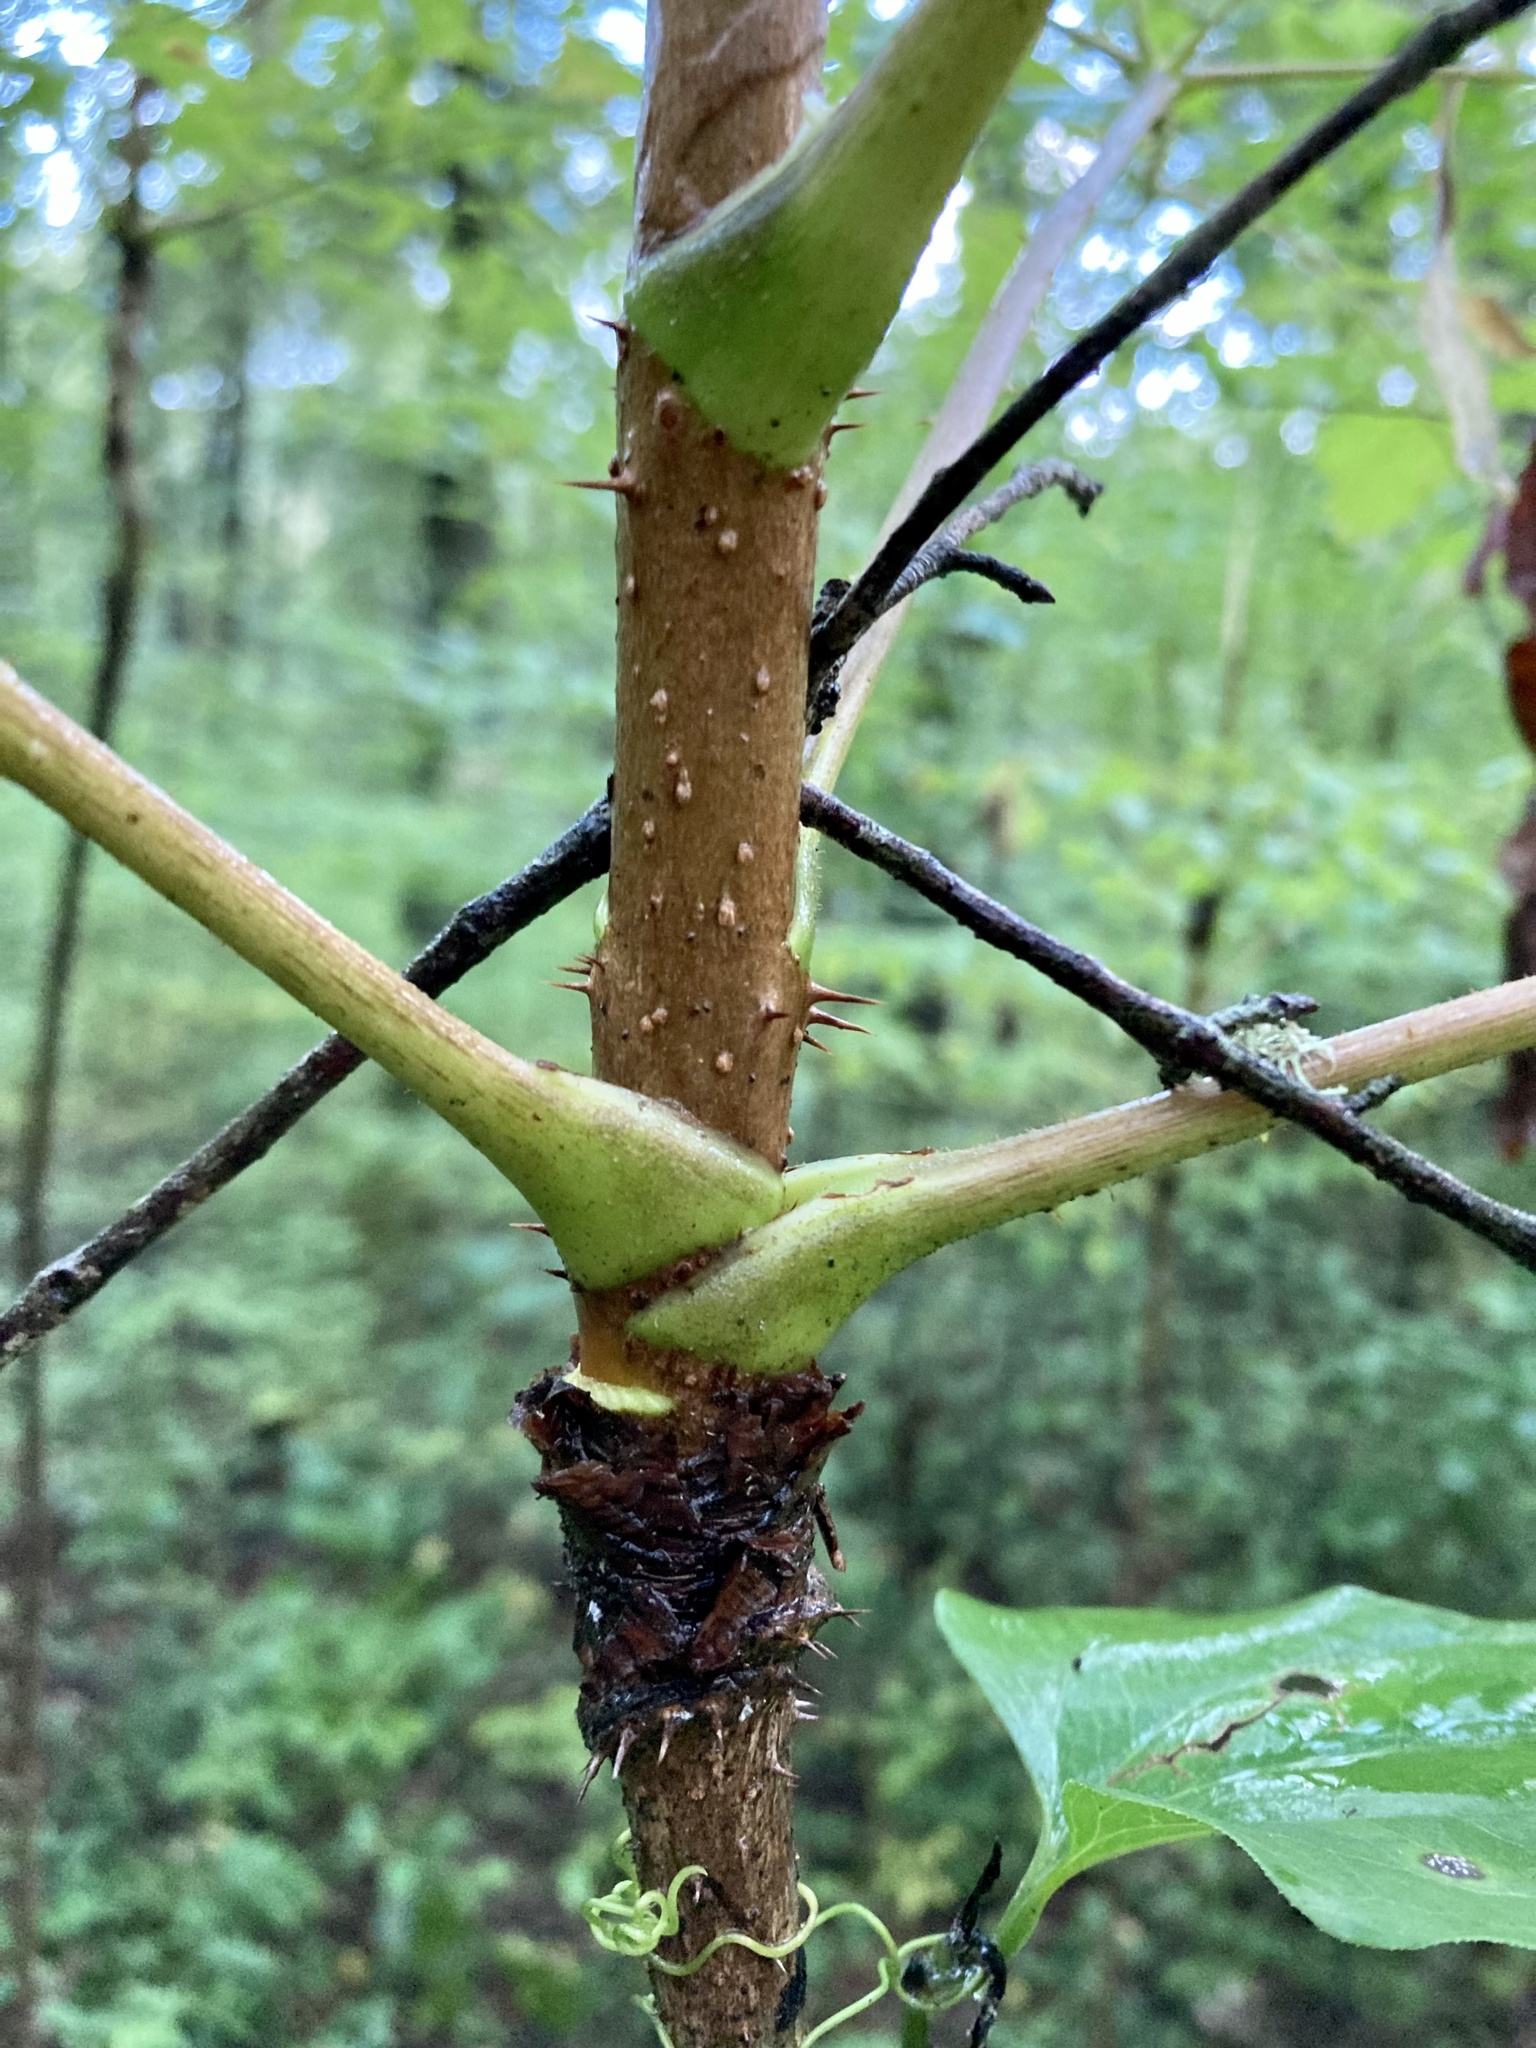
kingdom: Plantae
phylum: Tracheophyta
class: Magnoliopsida
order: Apiales
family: Araliaceae
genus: Aralia
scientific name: Aralia spinosa
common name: Hercules'-club
